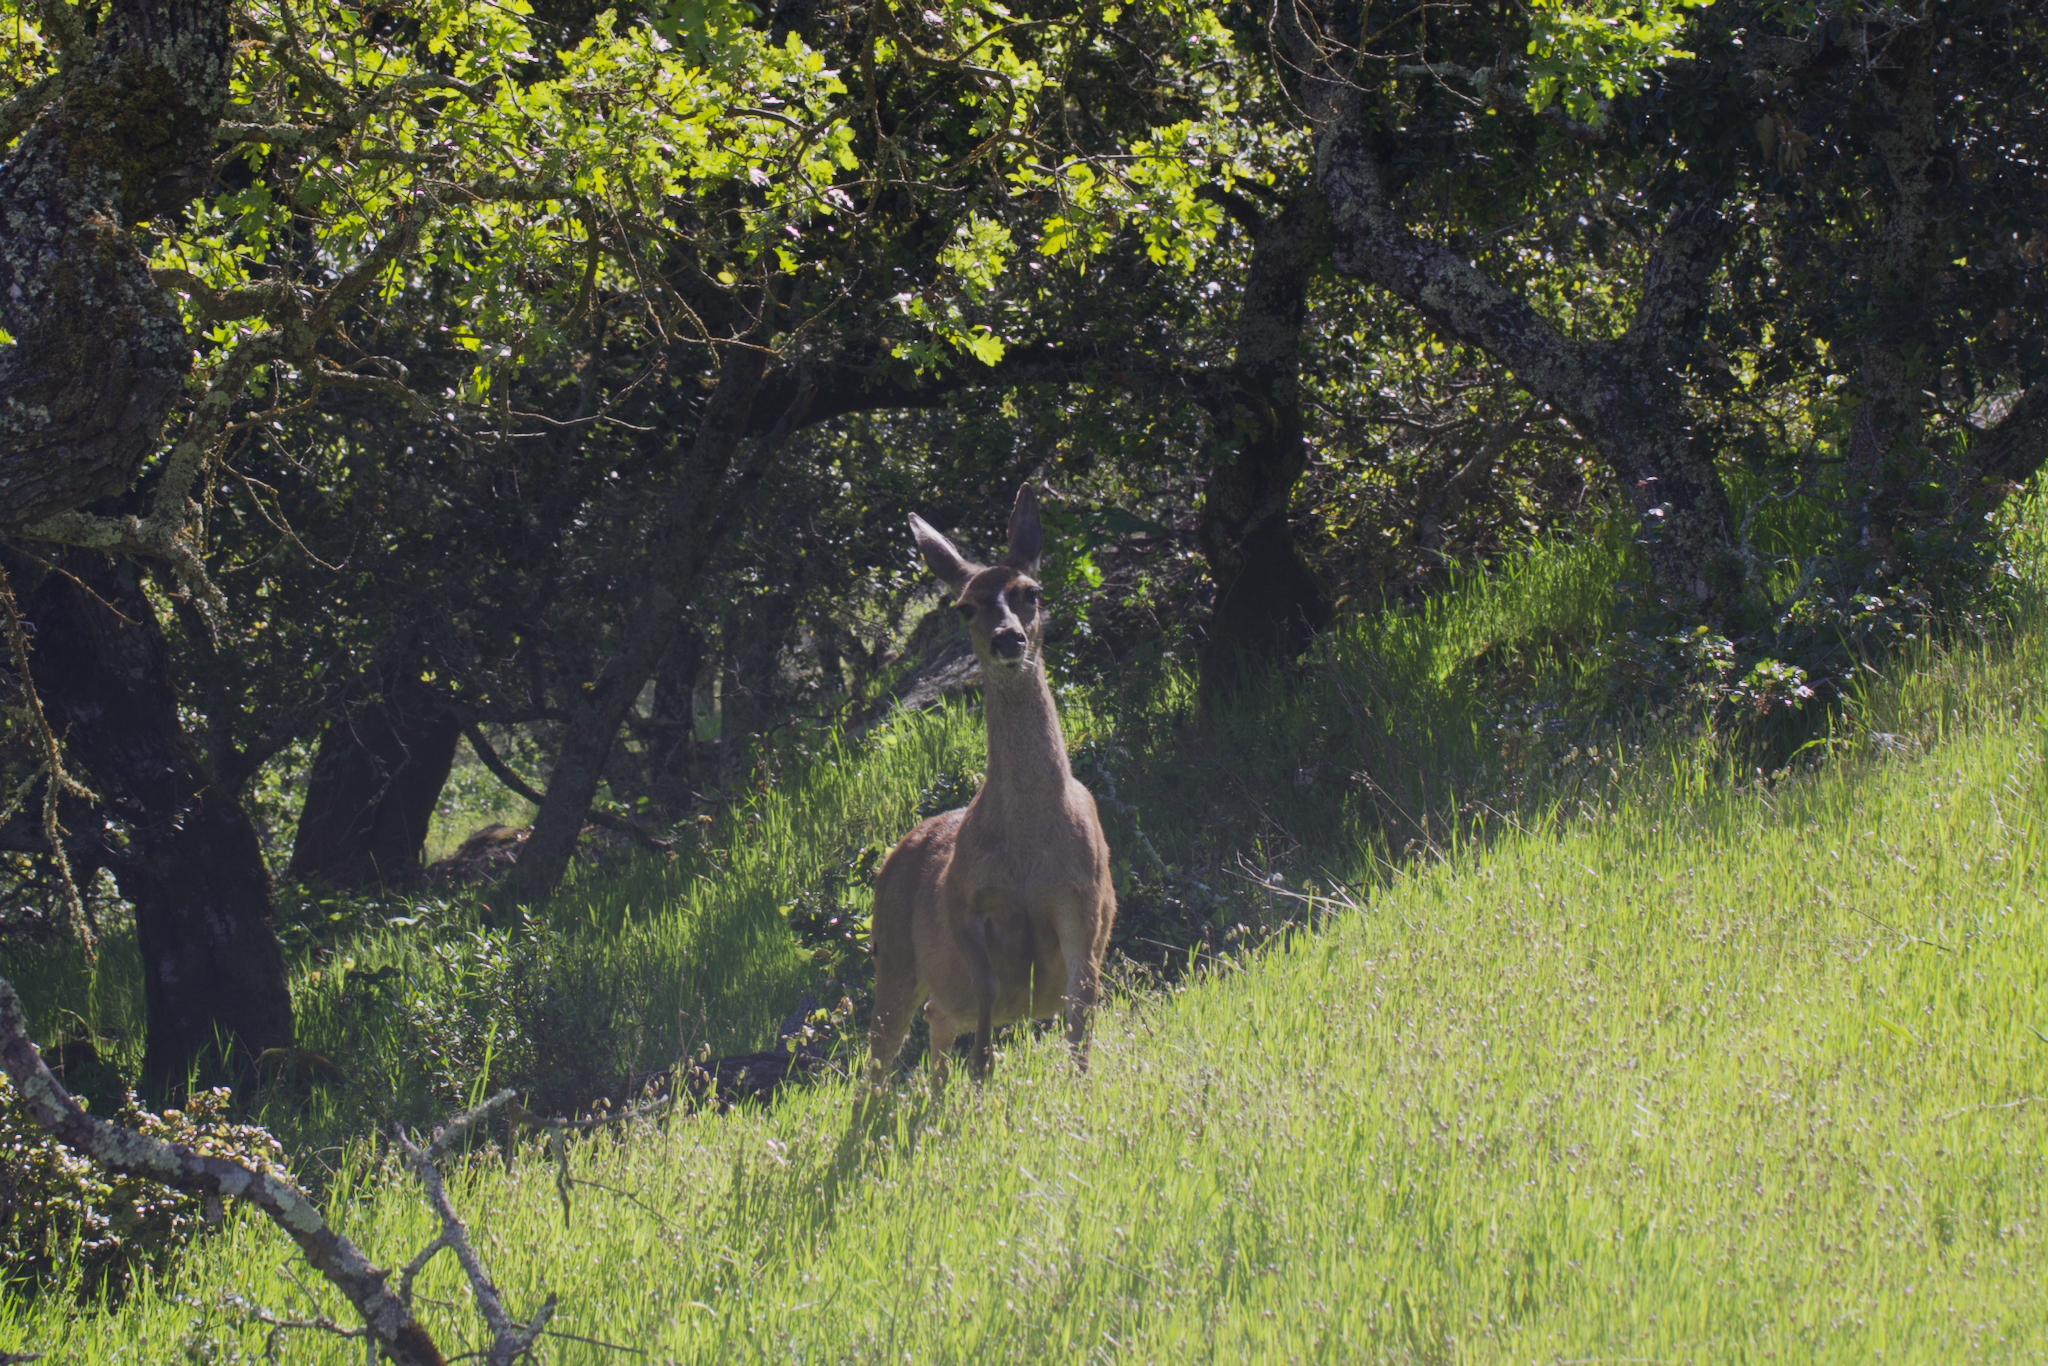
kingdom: Animalia
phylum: Chordata
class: Mammalia
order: Artiodactyla
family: Cervidae
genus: Odocoileus
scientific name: Odocoileus hemionus
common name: Mule deer
